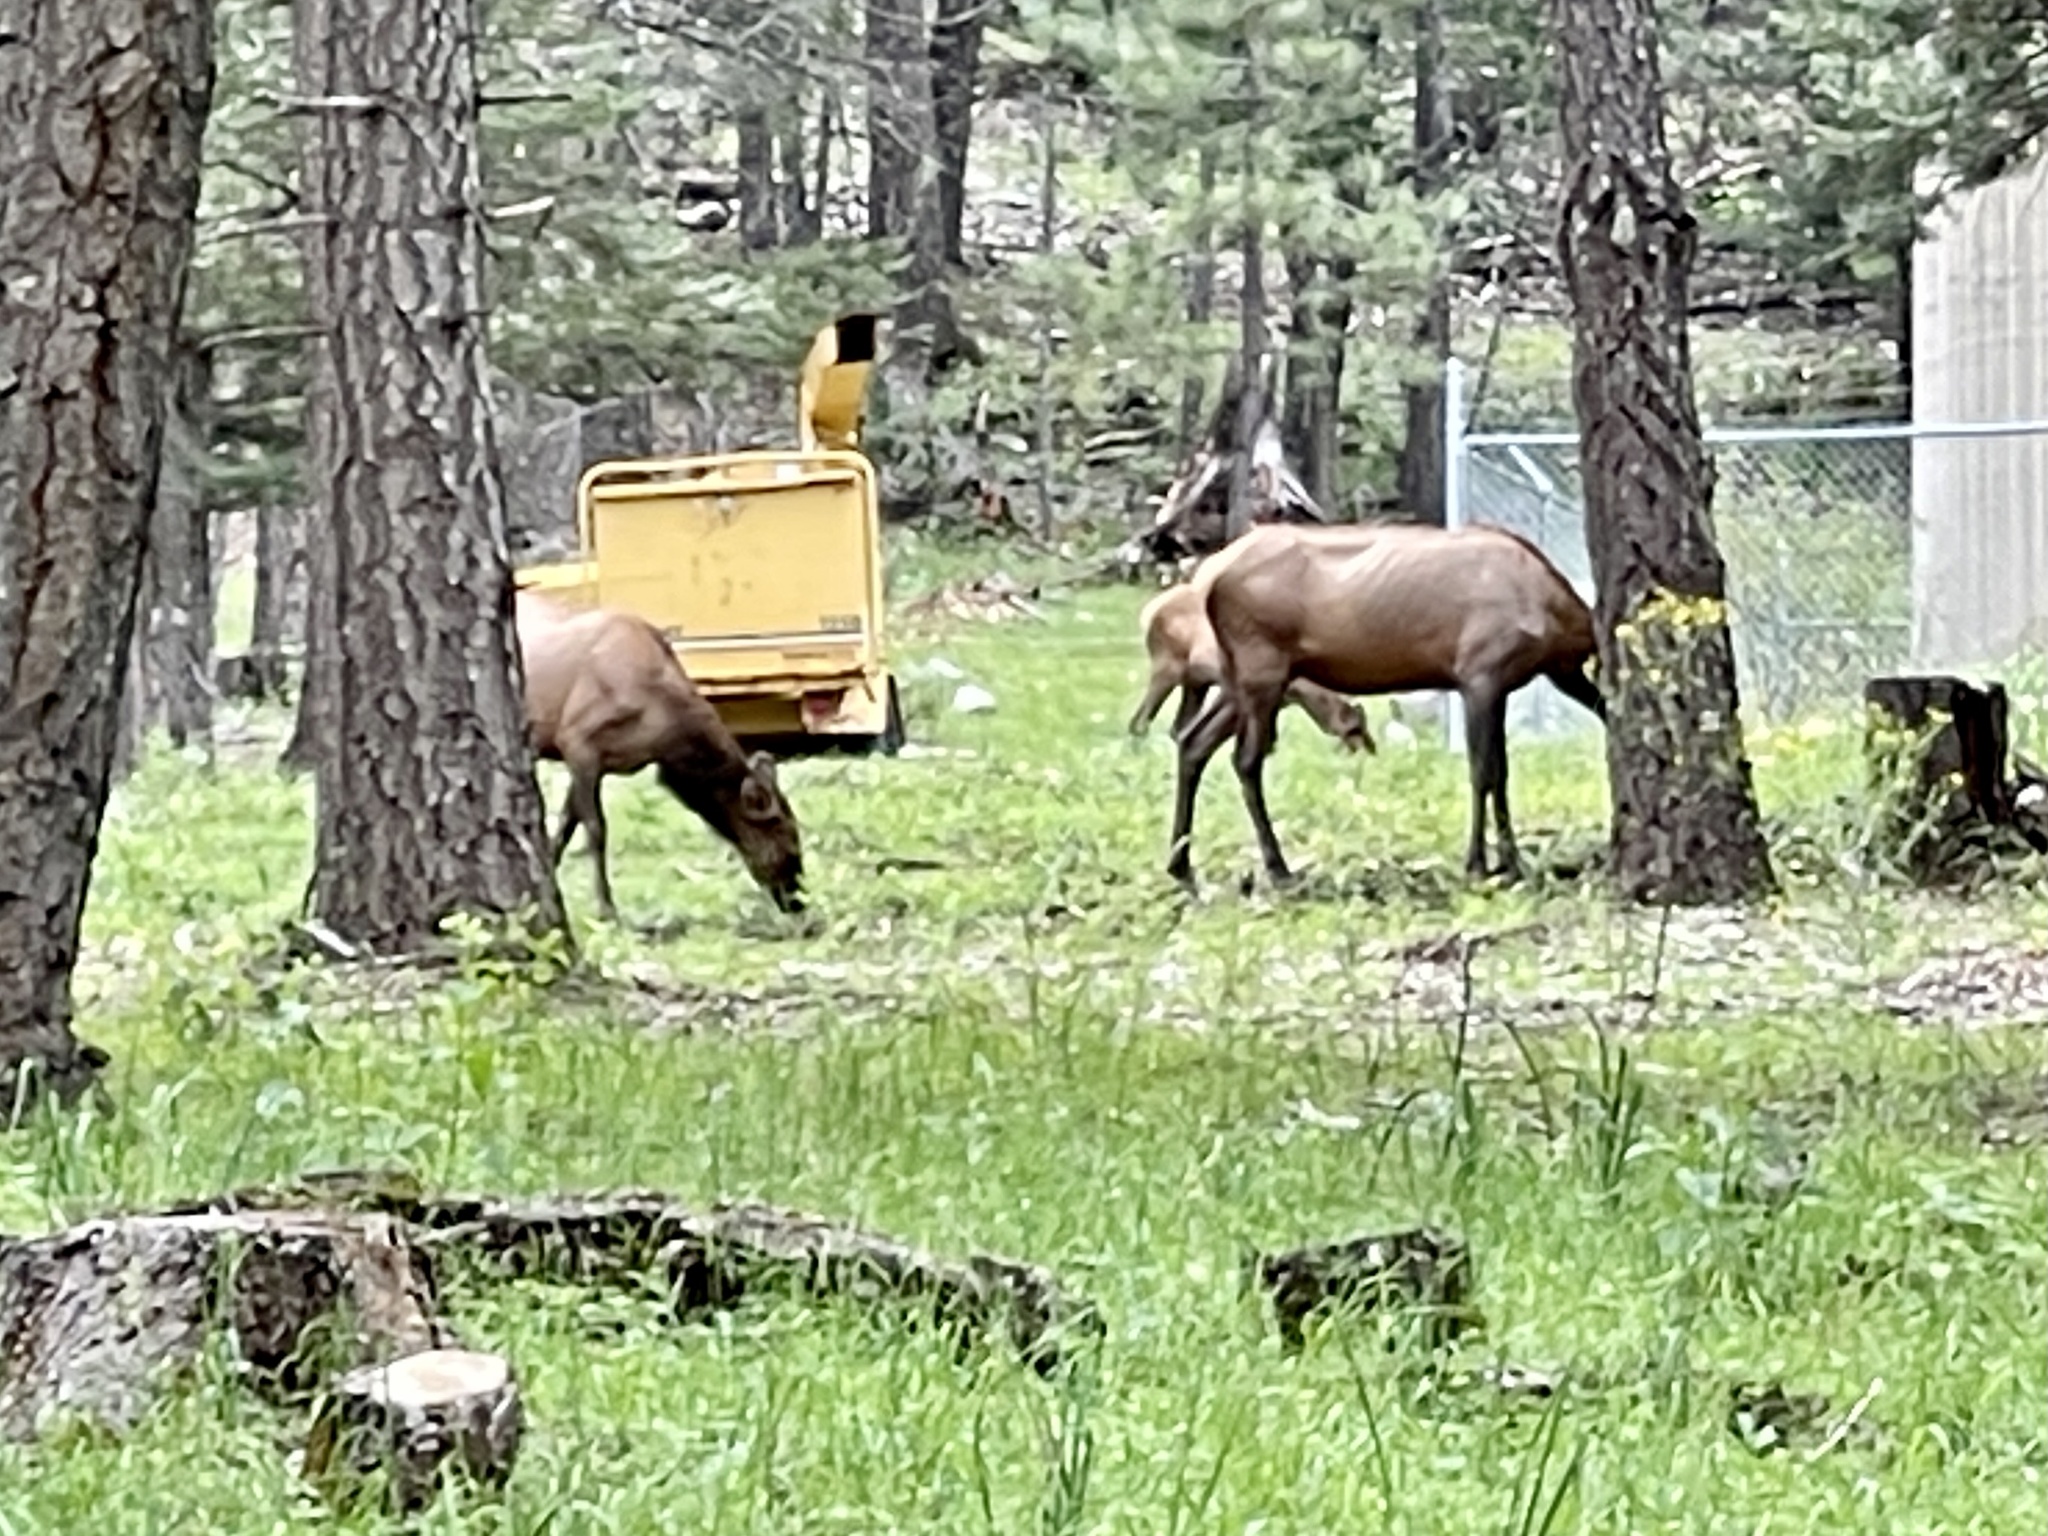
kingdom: Animalia
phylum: Chordata
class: Mammalia
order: Artiodactyla
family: Cervidae
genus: Cervus
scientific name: Cervus elaphus
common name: Red deer
